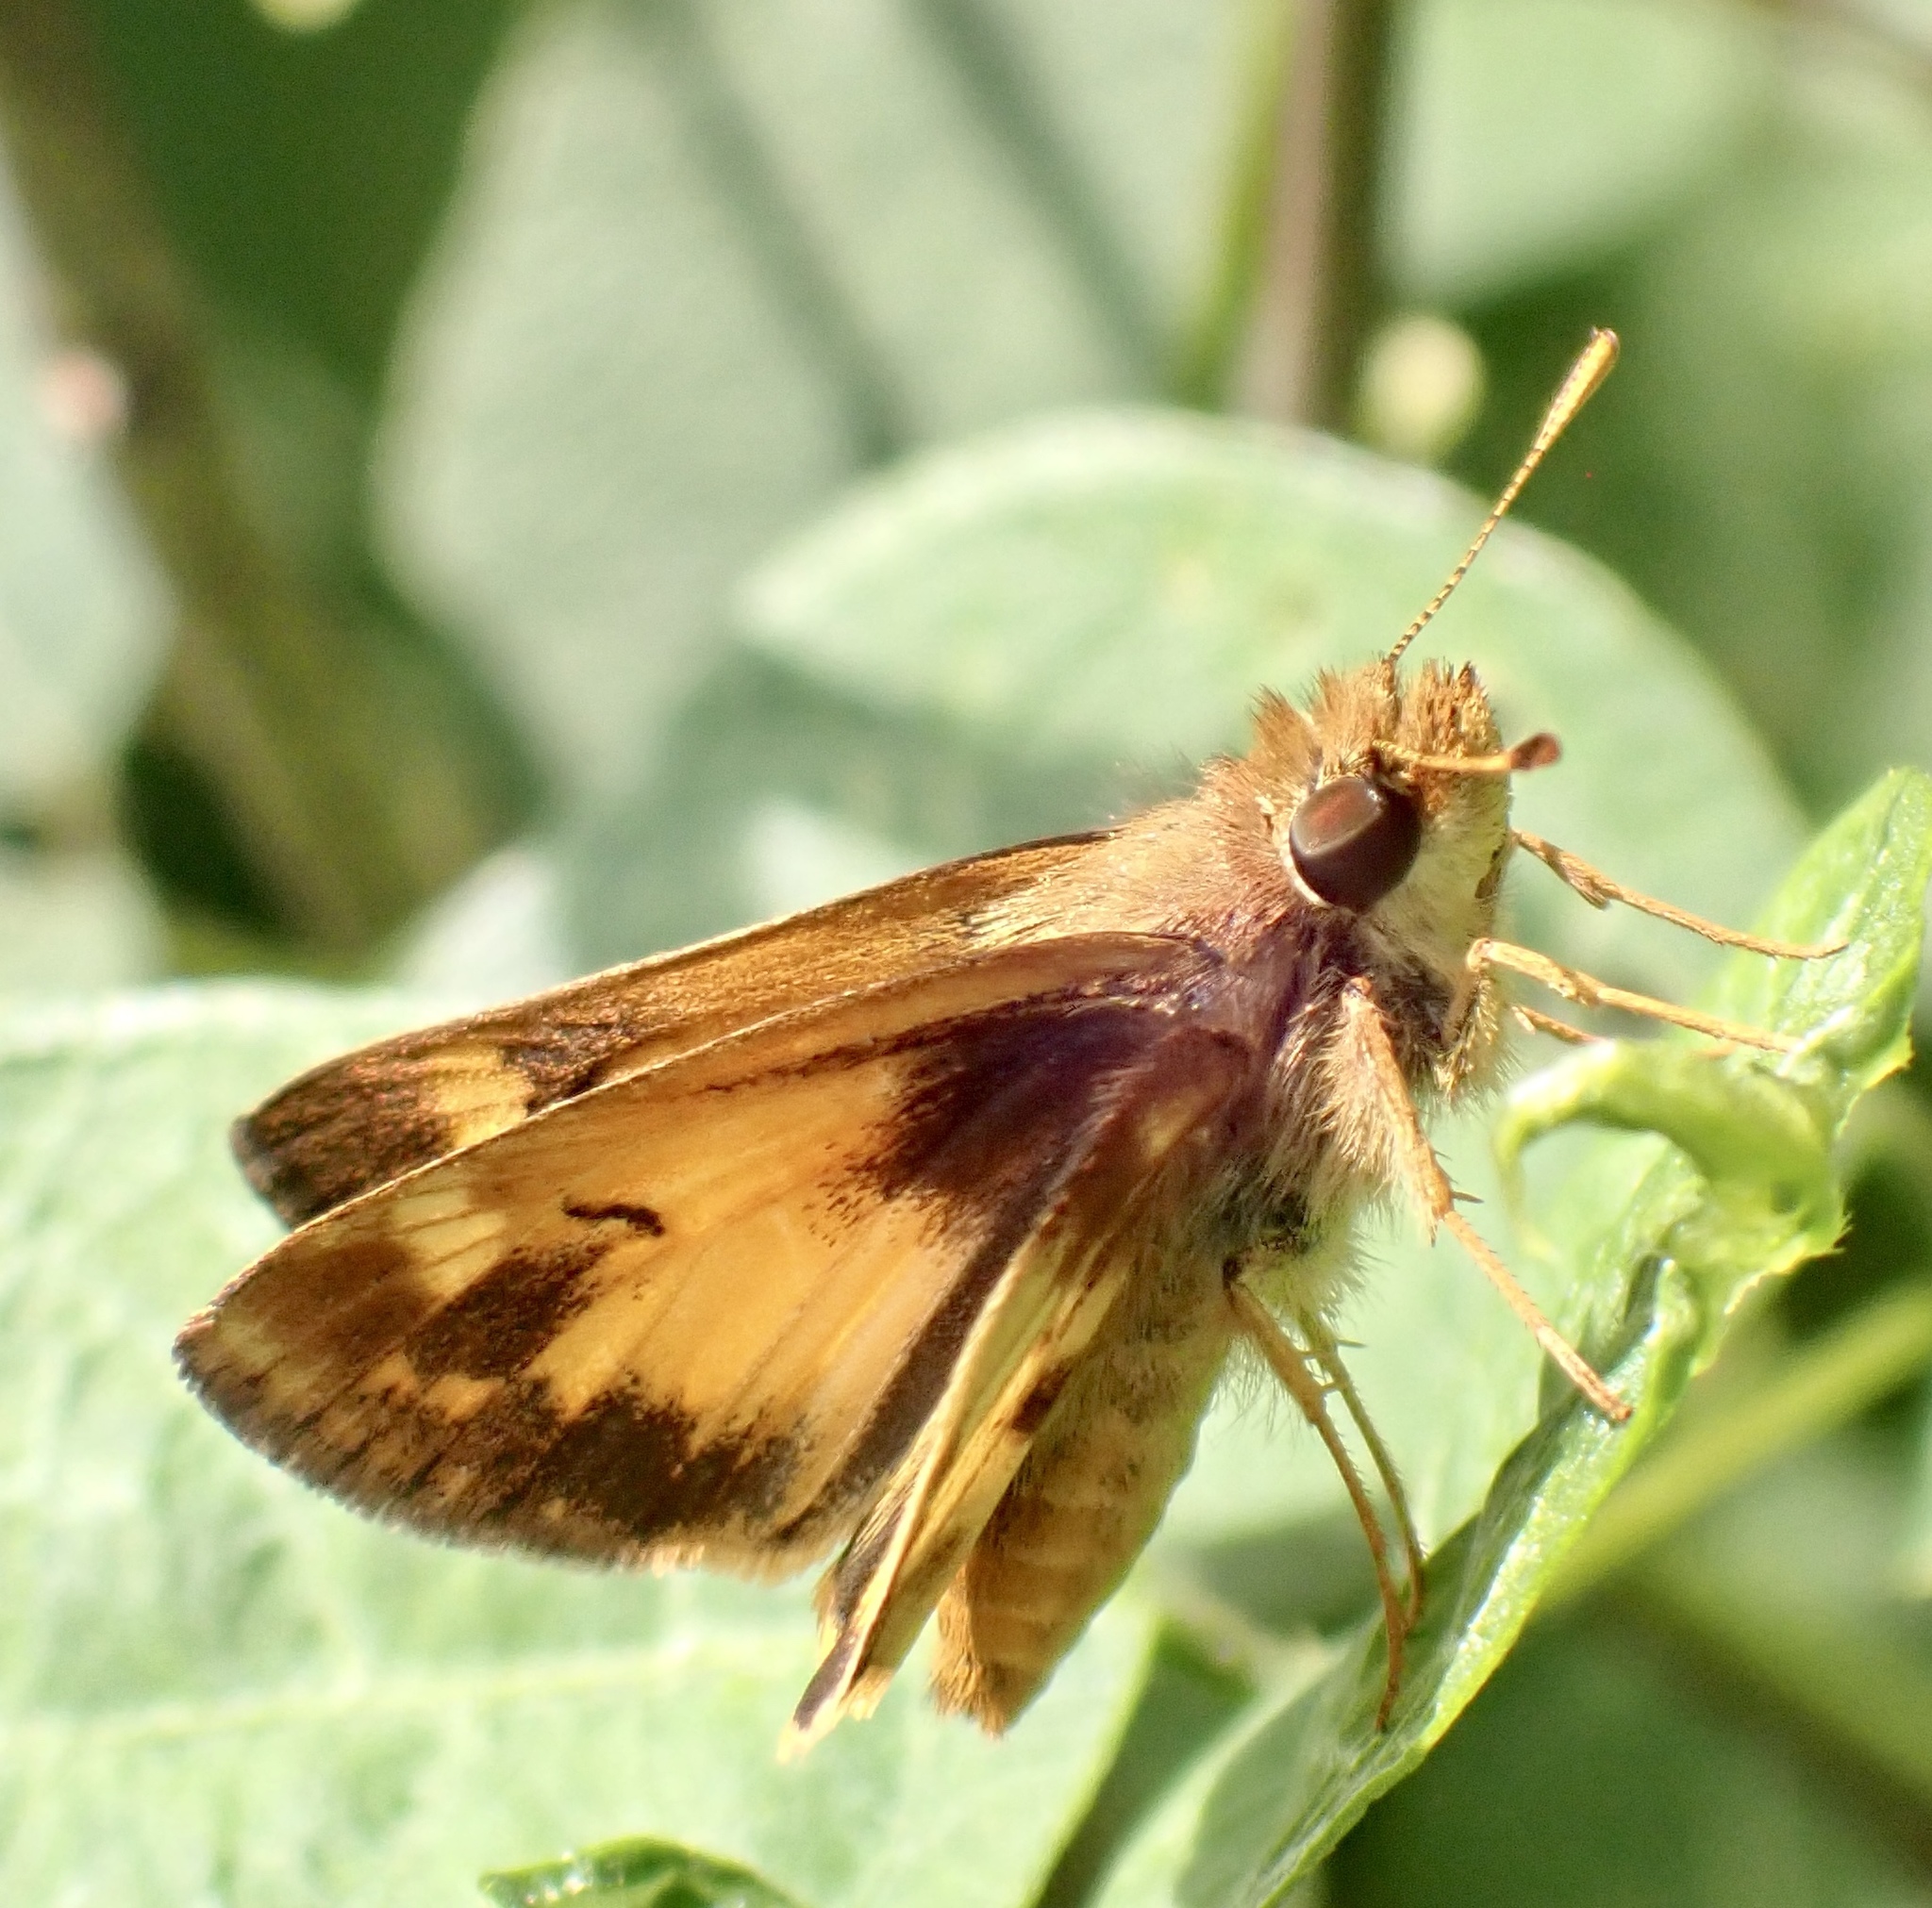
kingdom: Animalia
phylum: Arthropoda
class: Insecta
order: Lepidoptera
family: Hesperiidae
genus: Lon
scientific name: Lon zabulon
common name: Zabulon skipper
